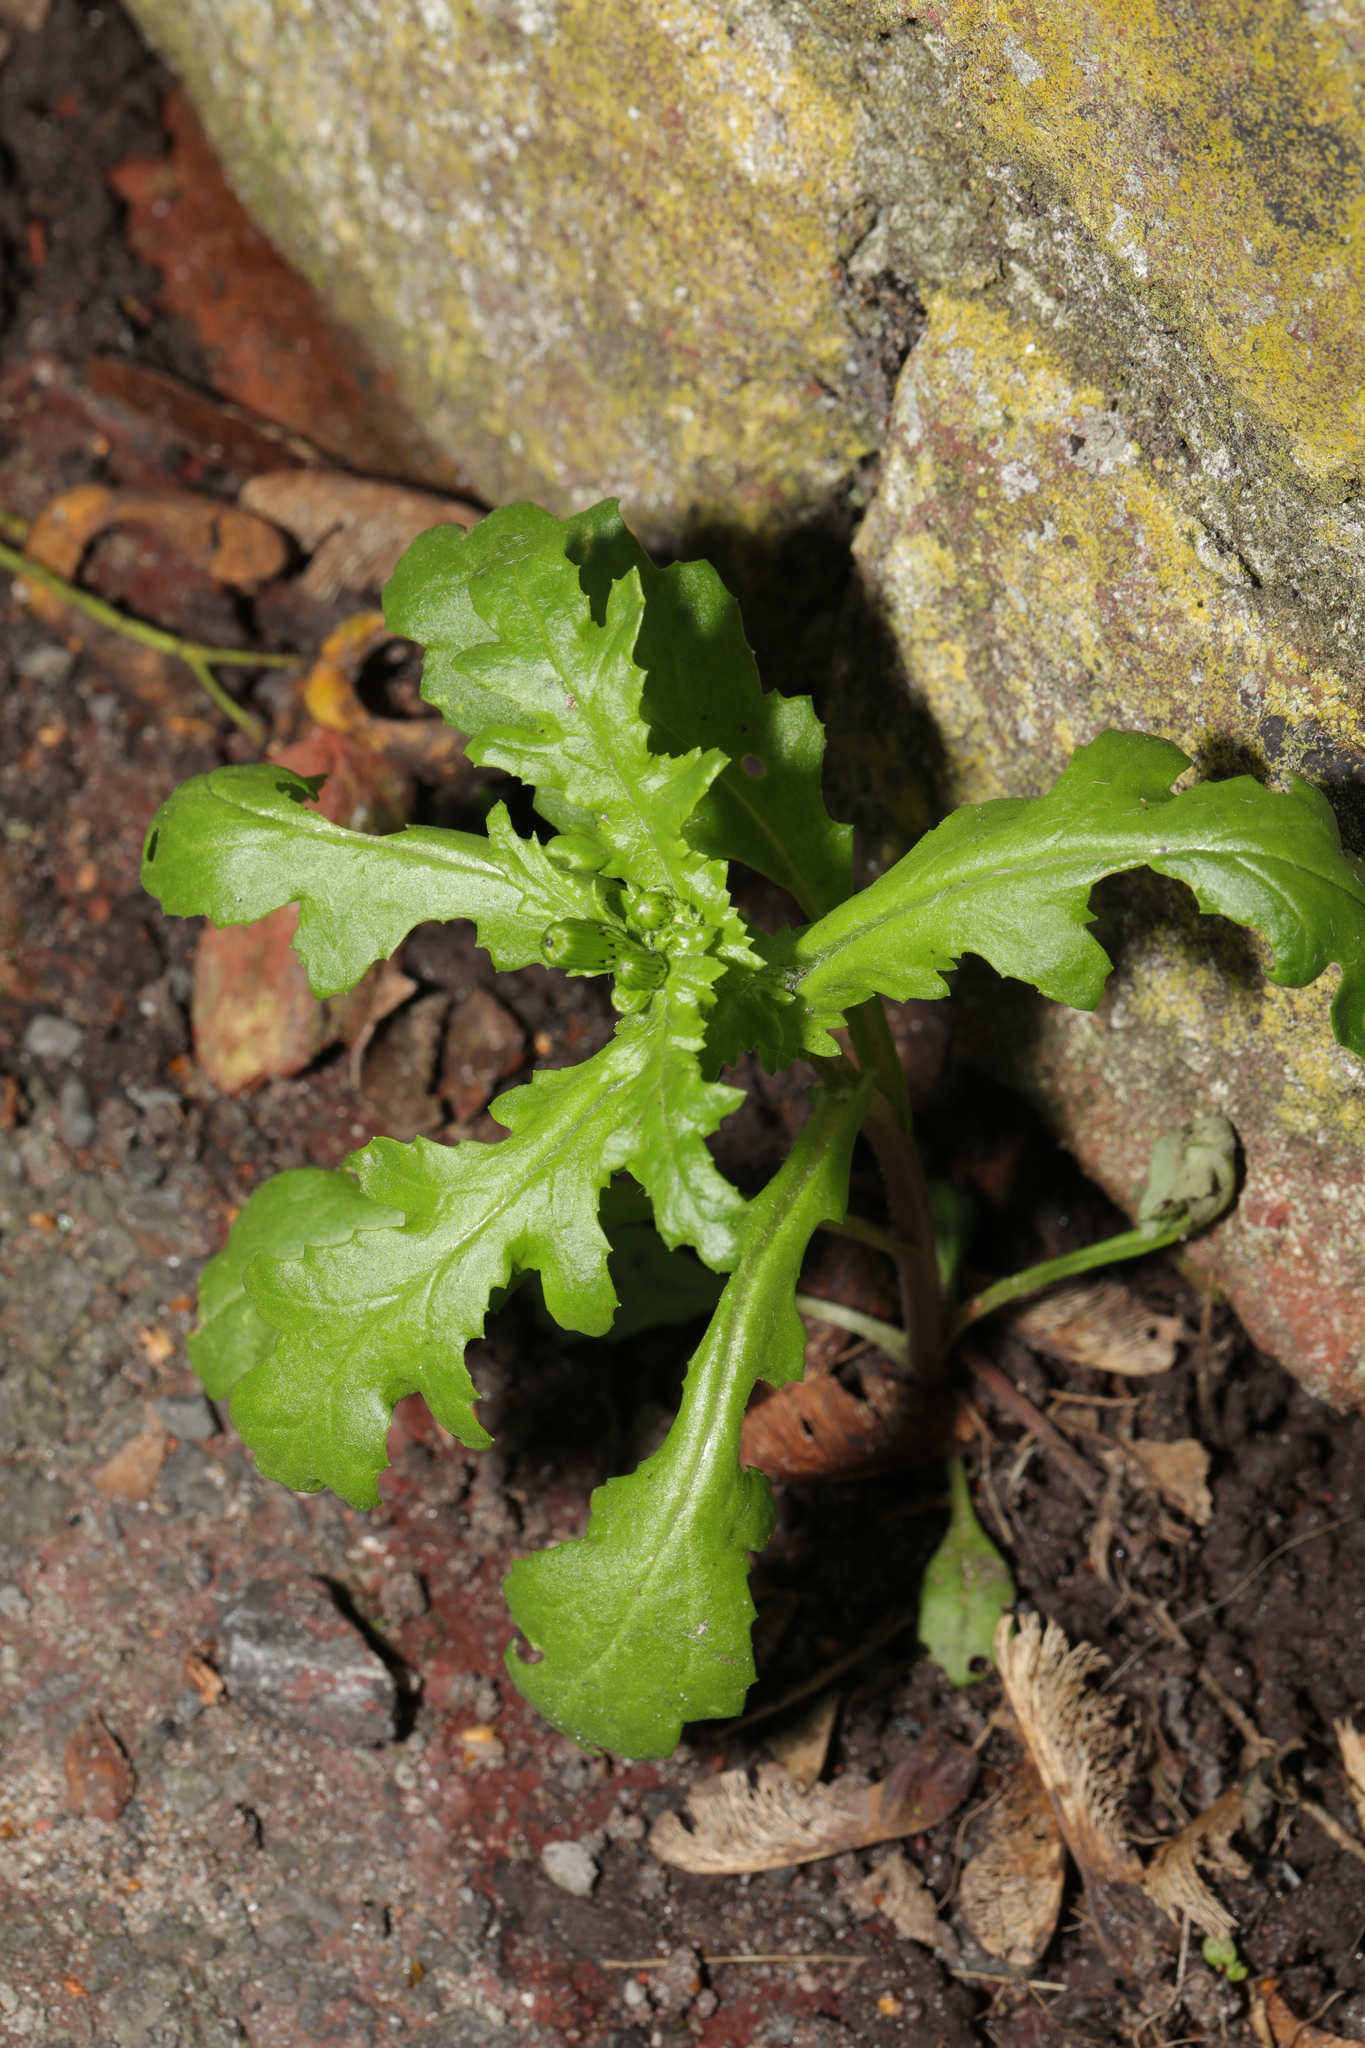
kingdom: Plantae
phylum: Tracheophyta
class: Magnoliopsida
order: Asterales
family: Asteraceae
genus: Senecio
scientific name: Senecio vulgaris
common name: Old-man-in-the-spring
